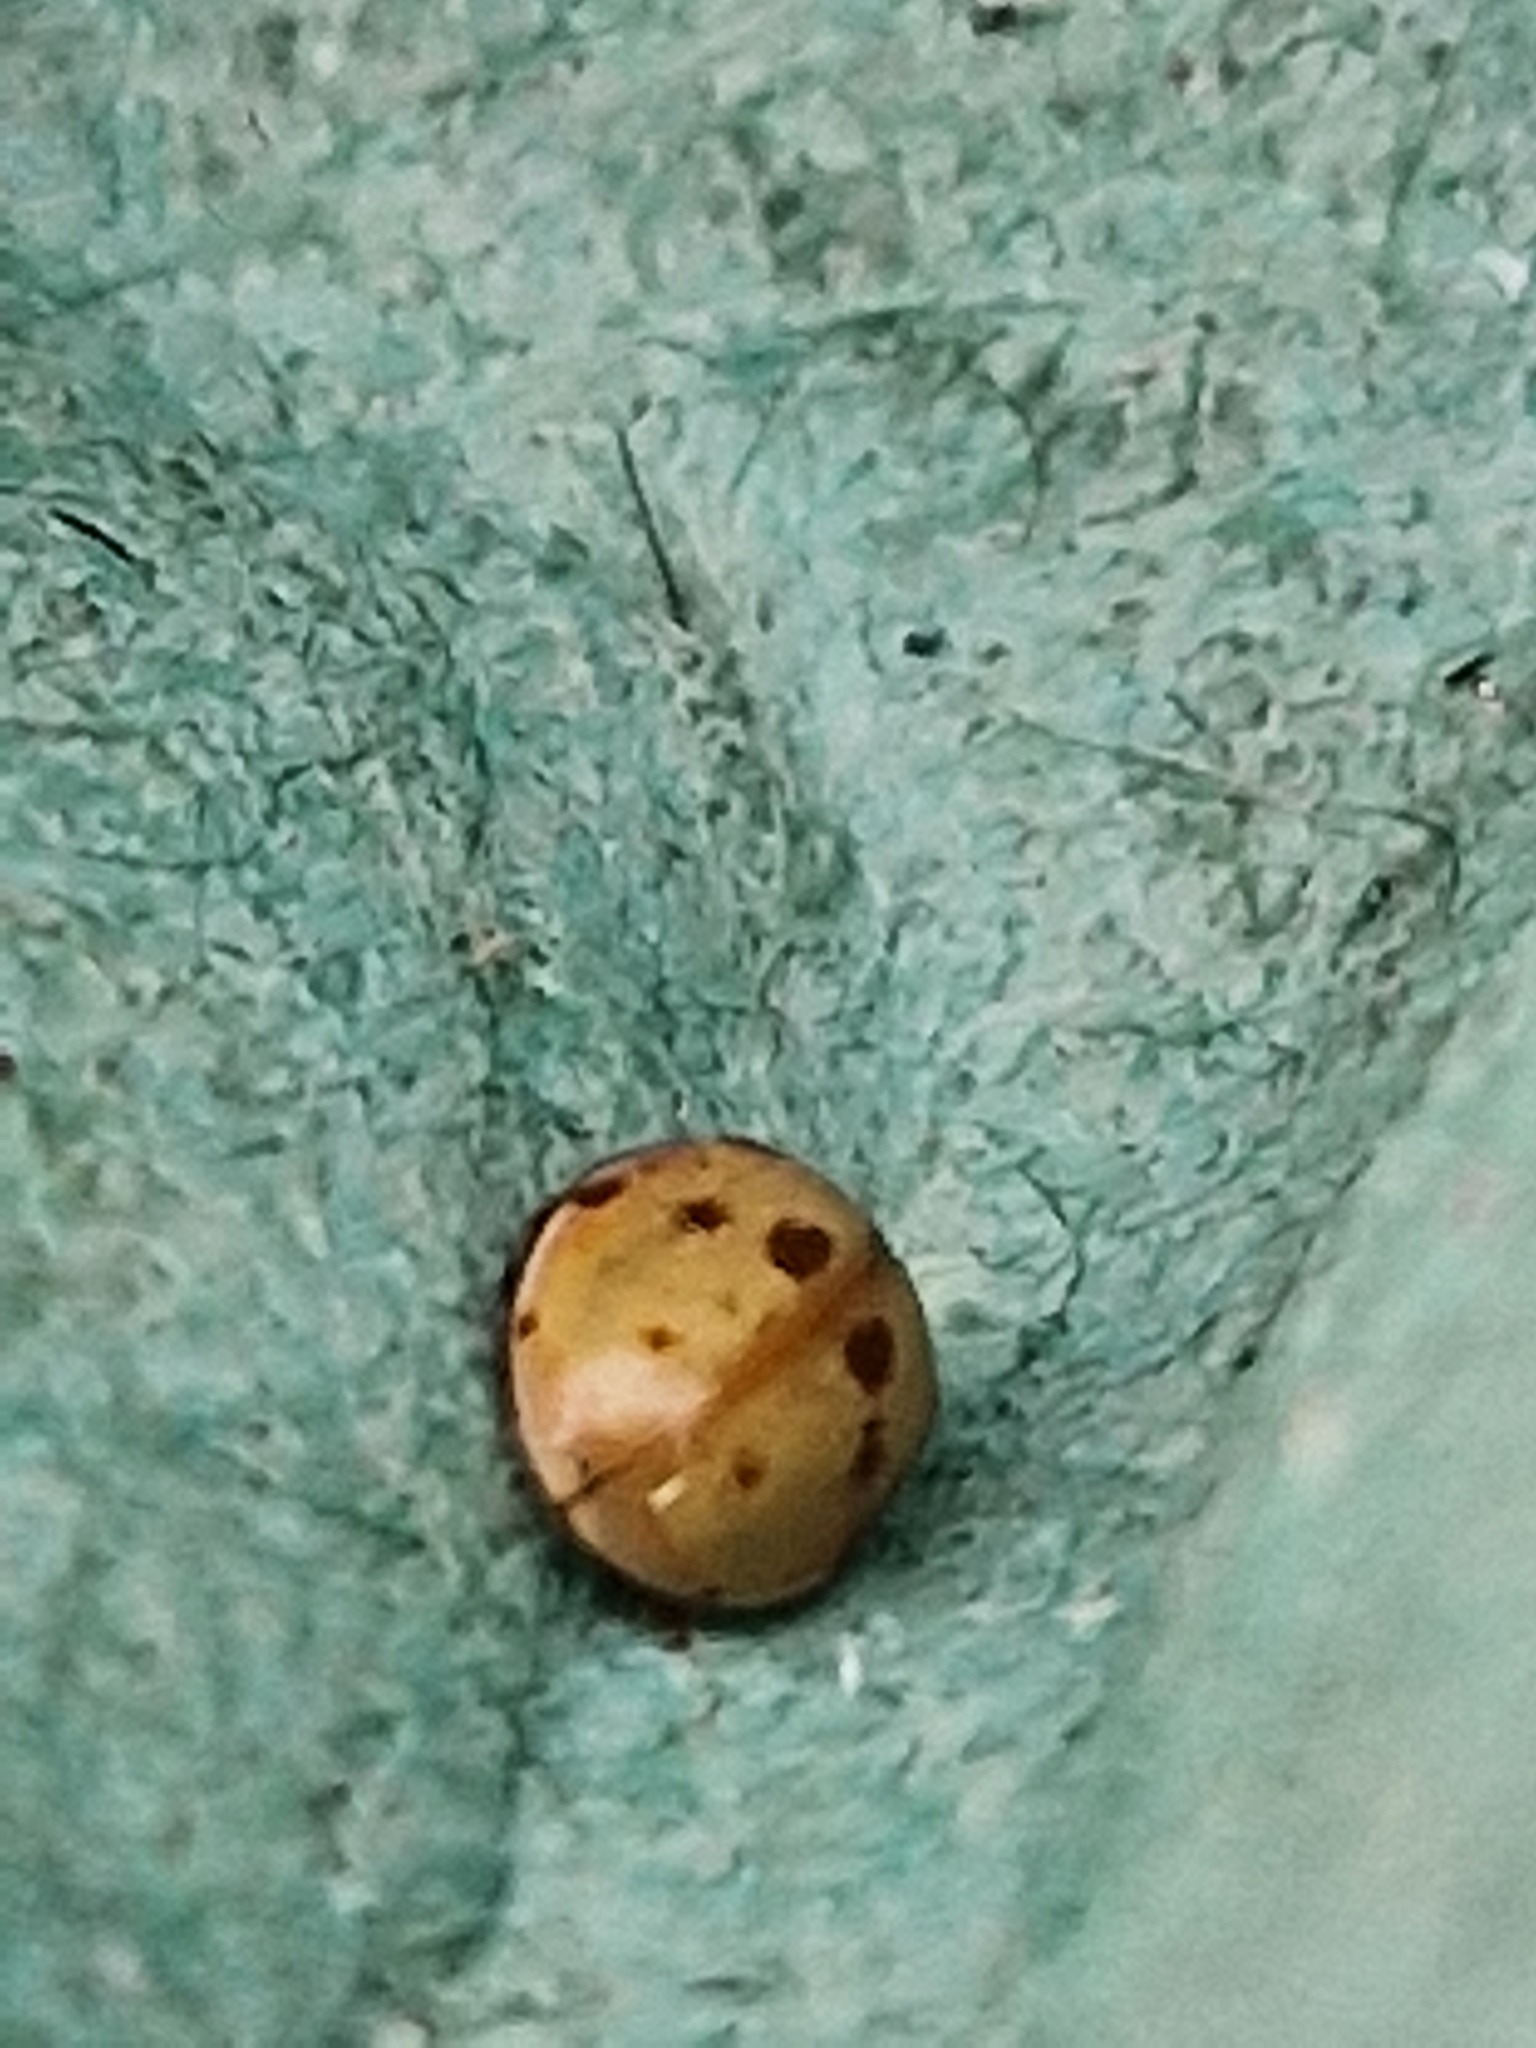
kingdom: Animalia
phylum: Arthropoda
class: Insecta
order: Coleoptera
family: Coccinellidae
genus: Adalia
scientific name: Adalia decempunctata
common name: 10-spot ladybird
